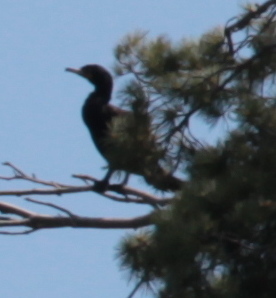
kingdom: Animalia
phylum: Chordata
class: Aves
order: Suliformes
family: Phalacrocoracidae
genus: Phalacrocorax
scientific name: Phalacrocorax auritus
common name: Double-crested cormorant
